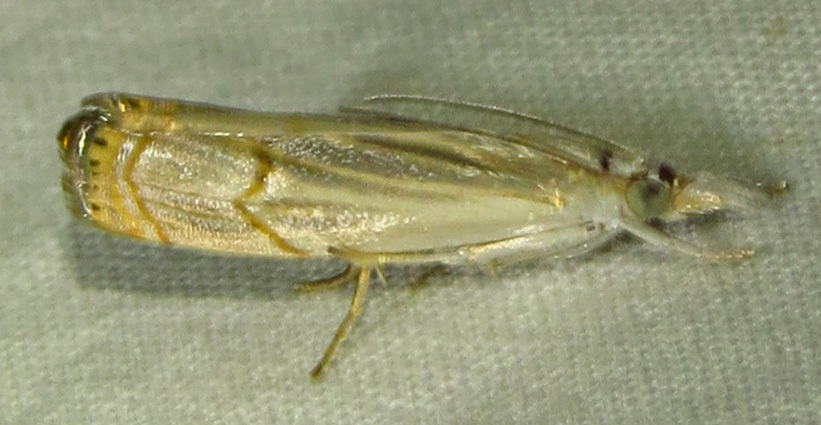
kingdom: Animalia
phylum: Arthropoda
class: Insecta
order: Lepidoptera
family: Crambidae
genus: Parapediasia
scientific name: Parapediasia decorellus
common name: Graceful grass-veneer
